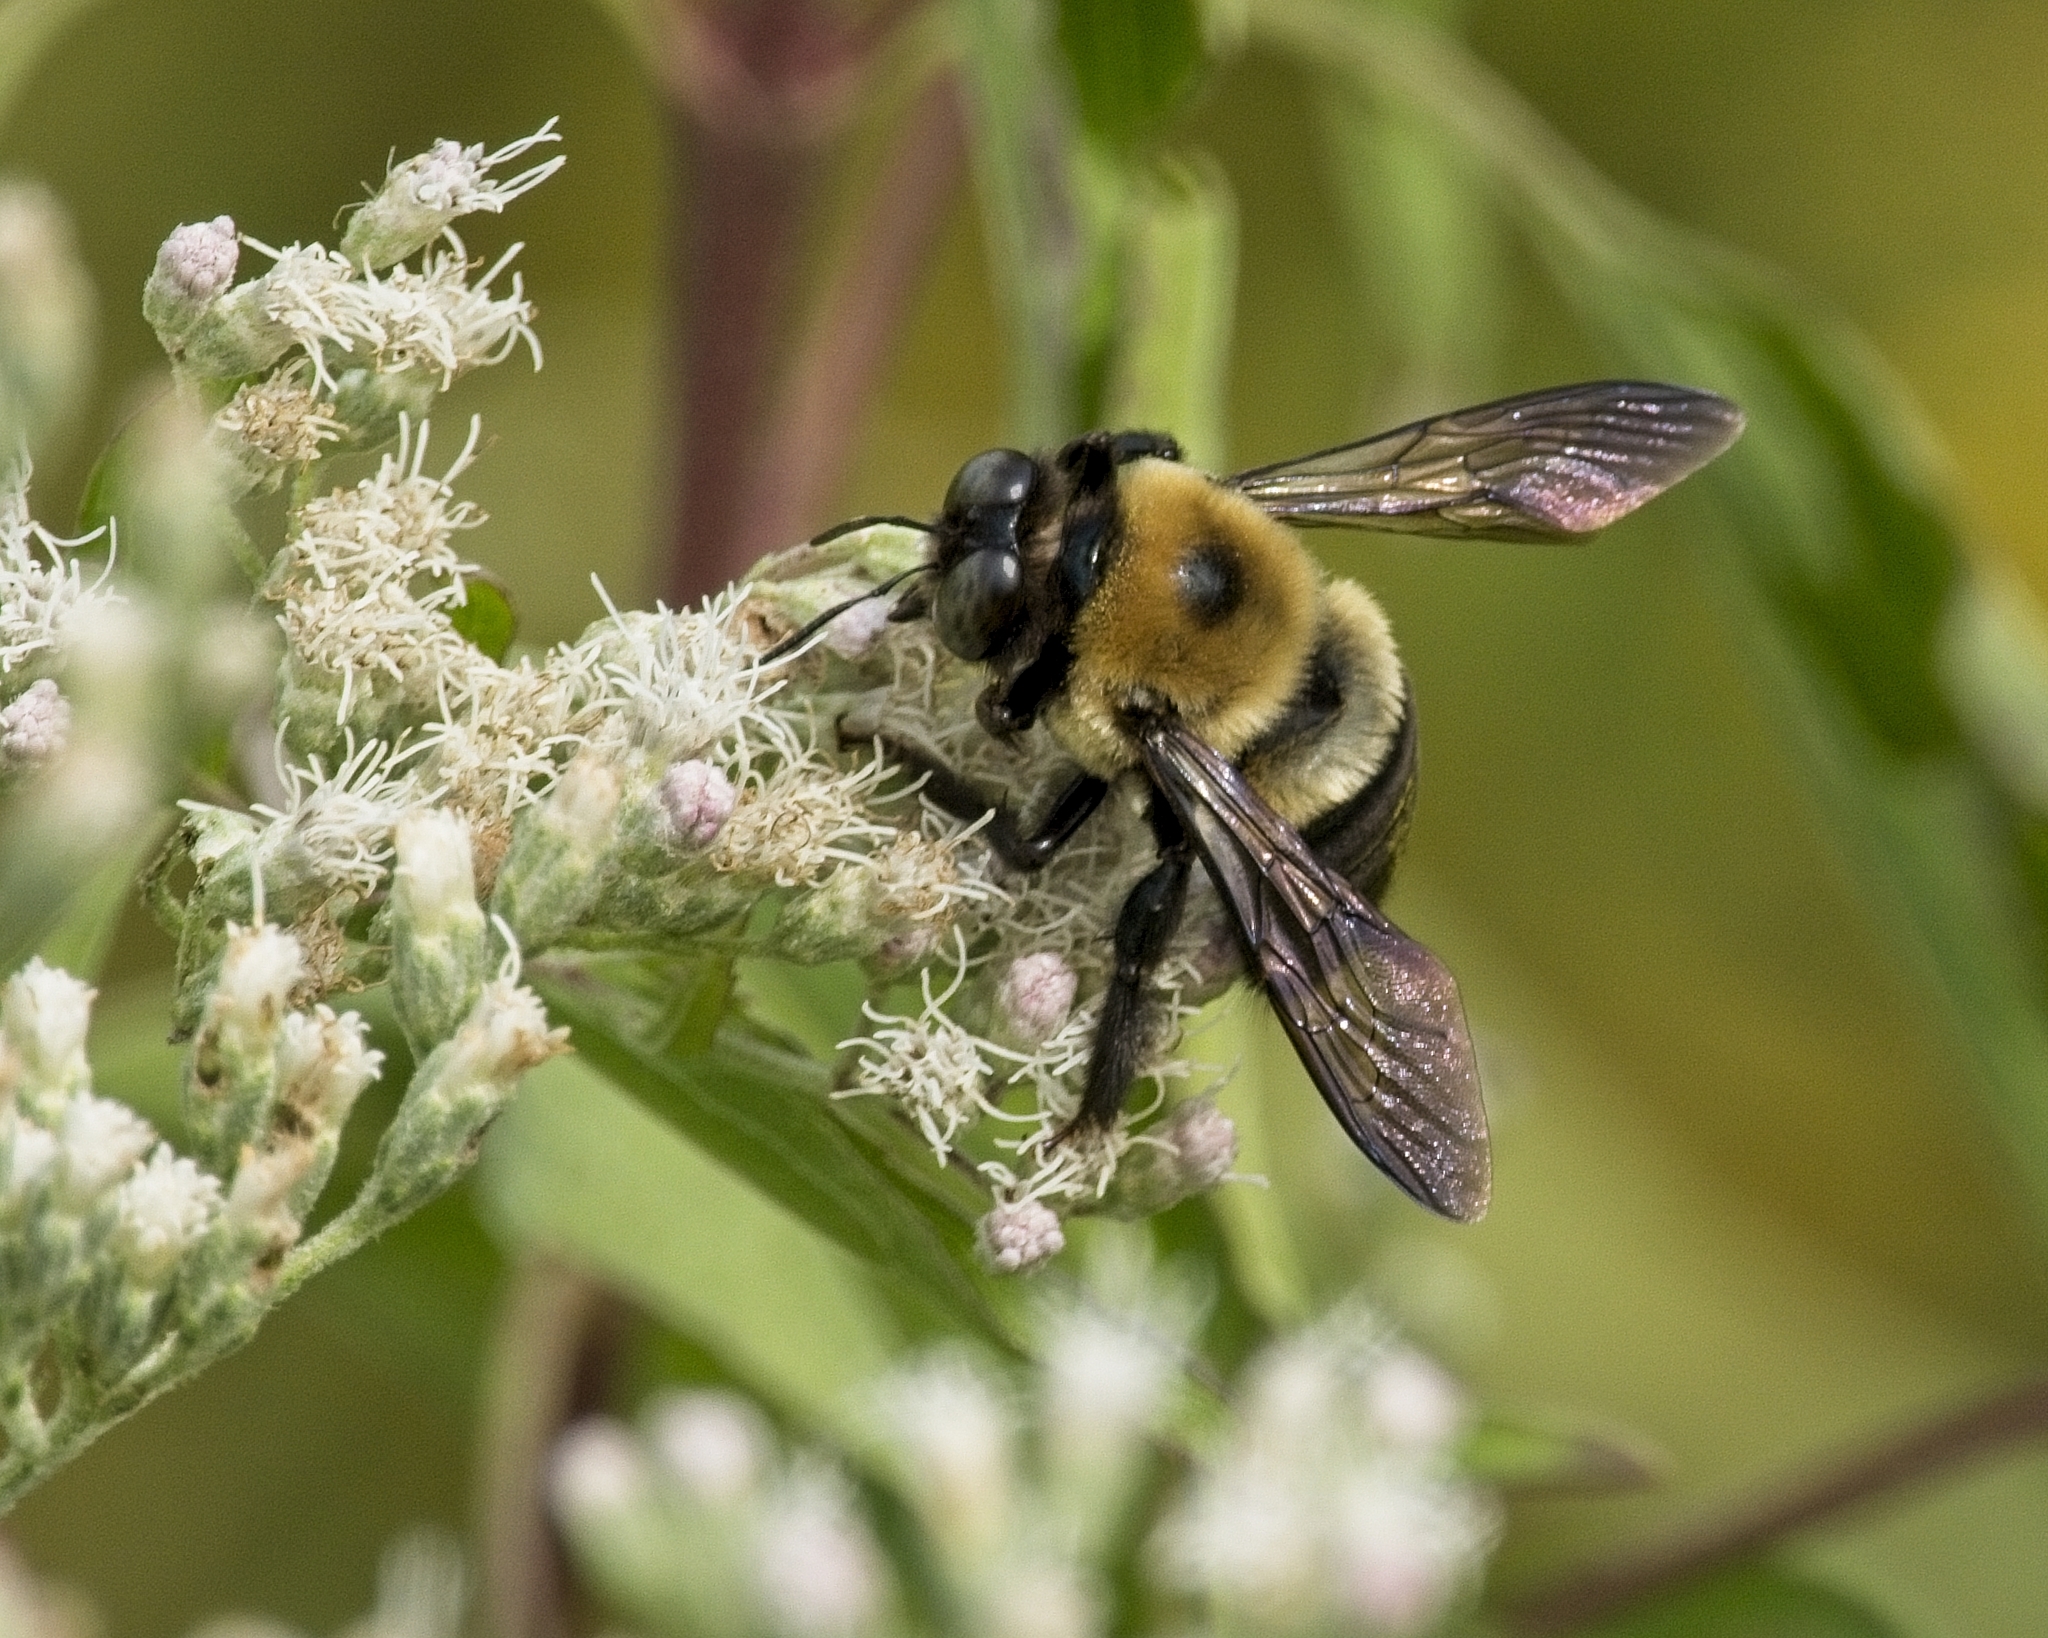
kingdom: Animalia
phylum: Arthropoda
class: Insecta
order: Hymenoptera
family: Apidae
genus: Xylocopa
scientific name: Xylocopa virginica
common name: Carpenter bee
